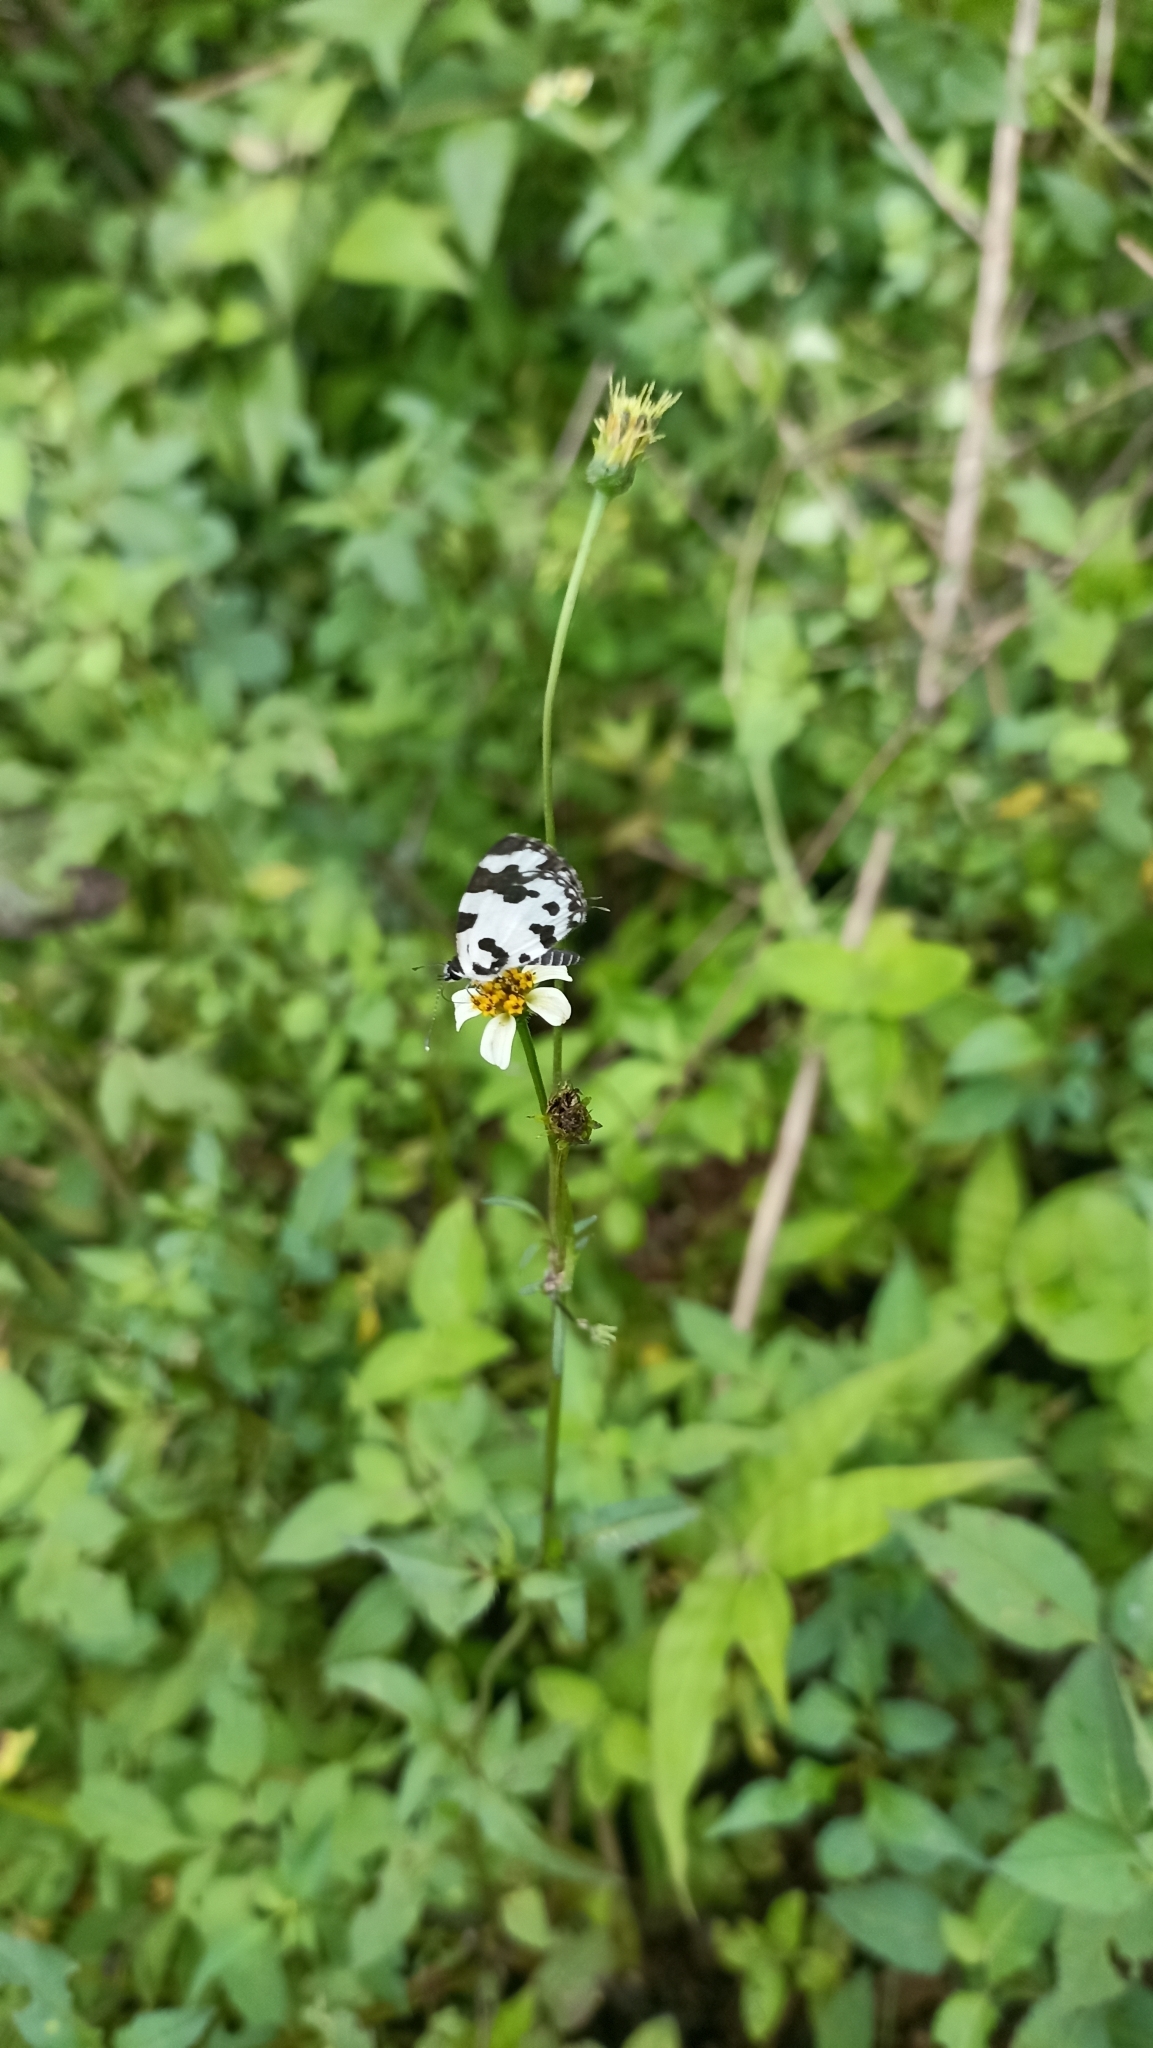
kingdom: Animalia
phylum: Arthropoda
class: Insecta
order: Lepidoptera
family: Lycaenidae
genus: Caleta
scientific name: Caleta decidia
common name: Angled pierrot
